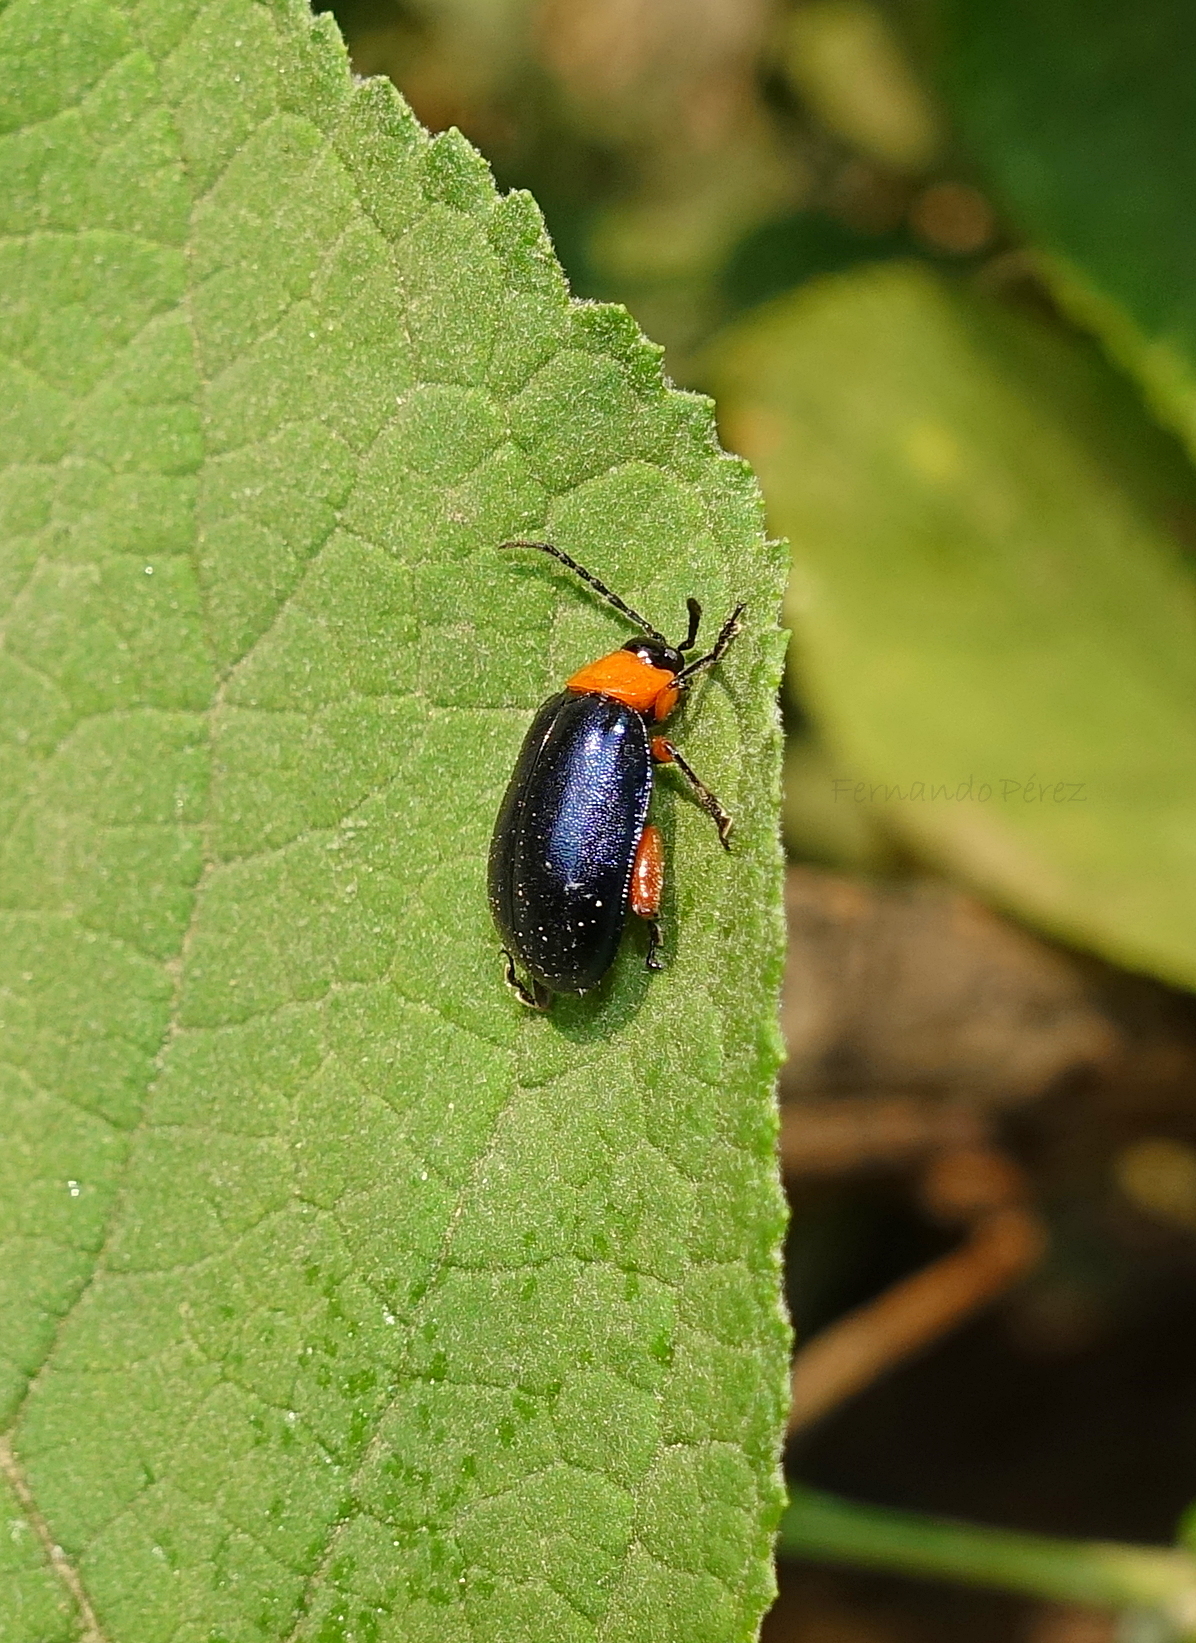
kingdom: Animalia
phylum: Arthropoda
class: Insecta
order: Coleoptera
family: Chrysomelidae
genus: Asphaera
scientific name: Asphaera abdominalis
